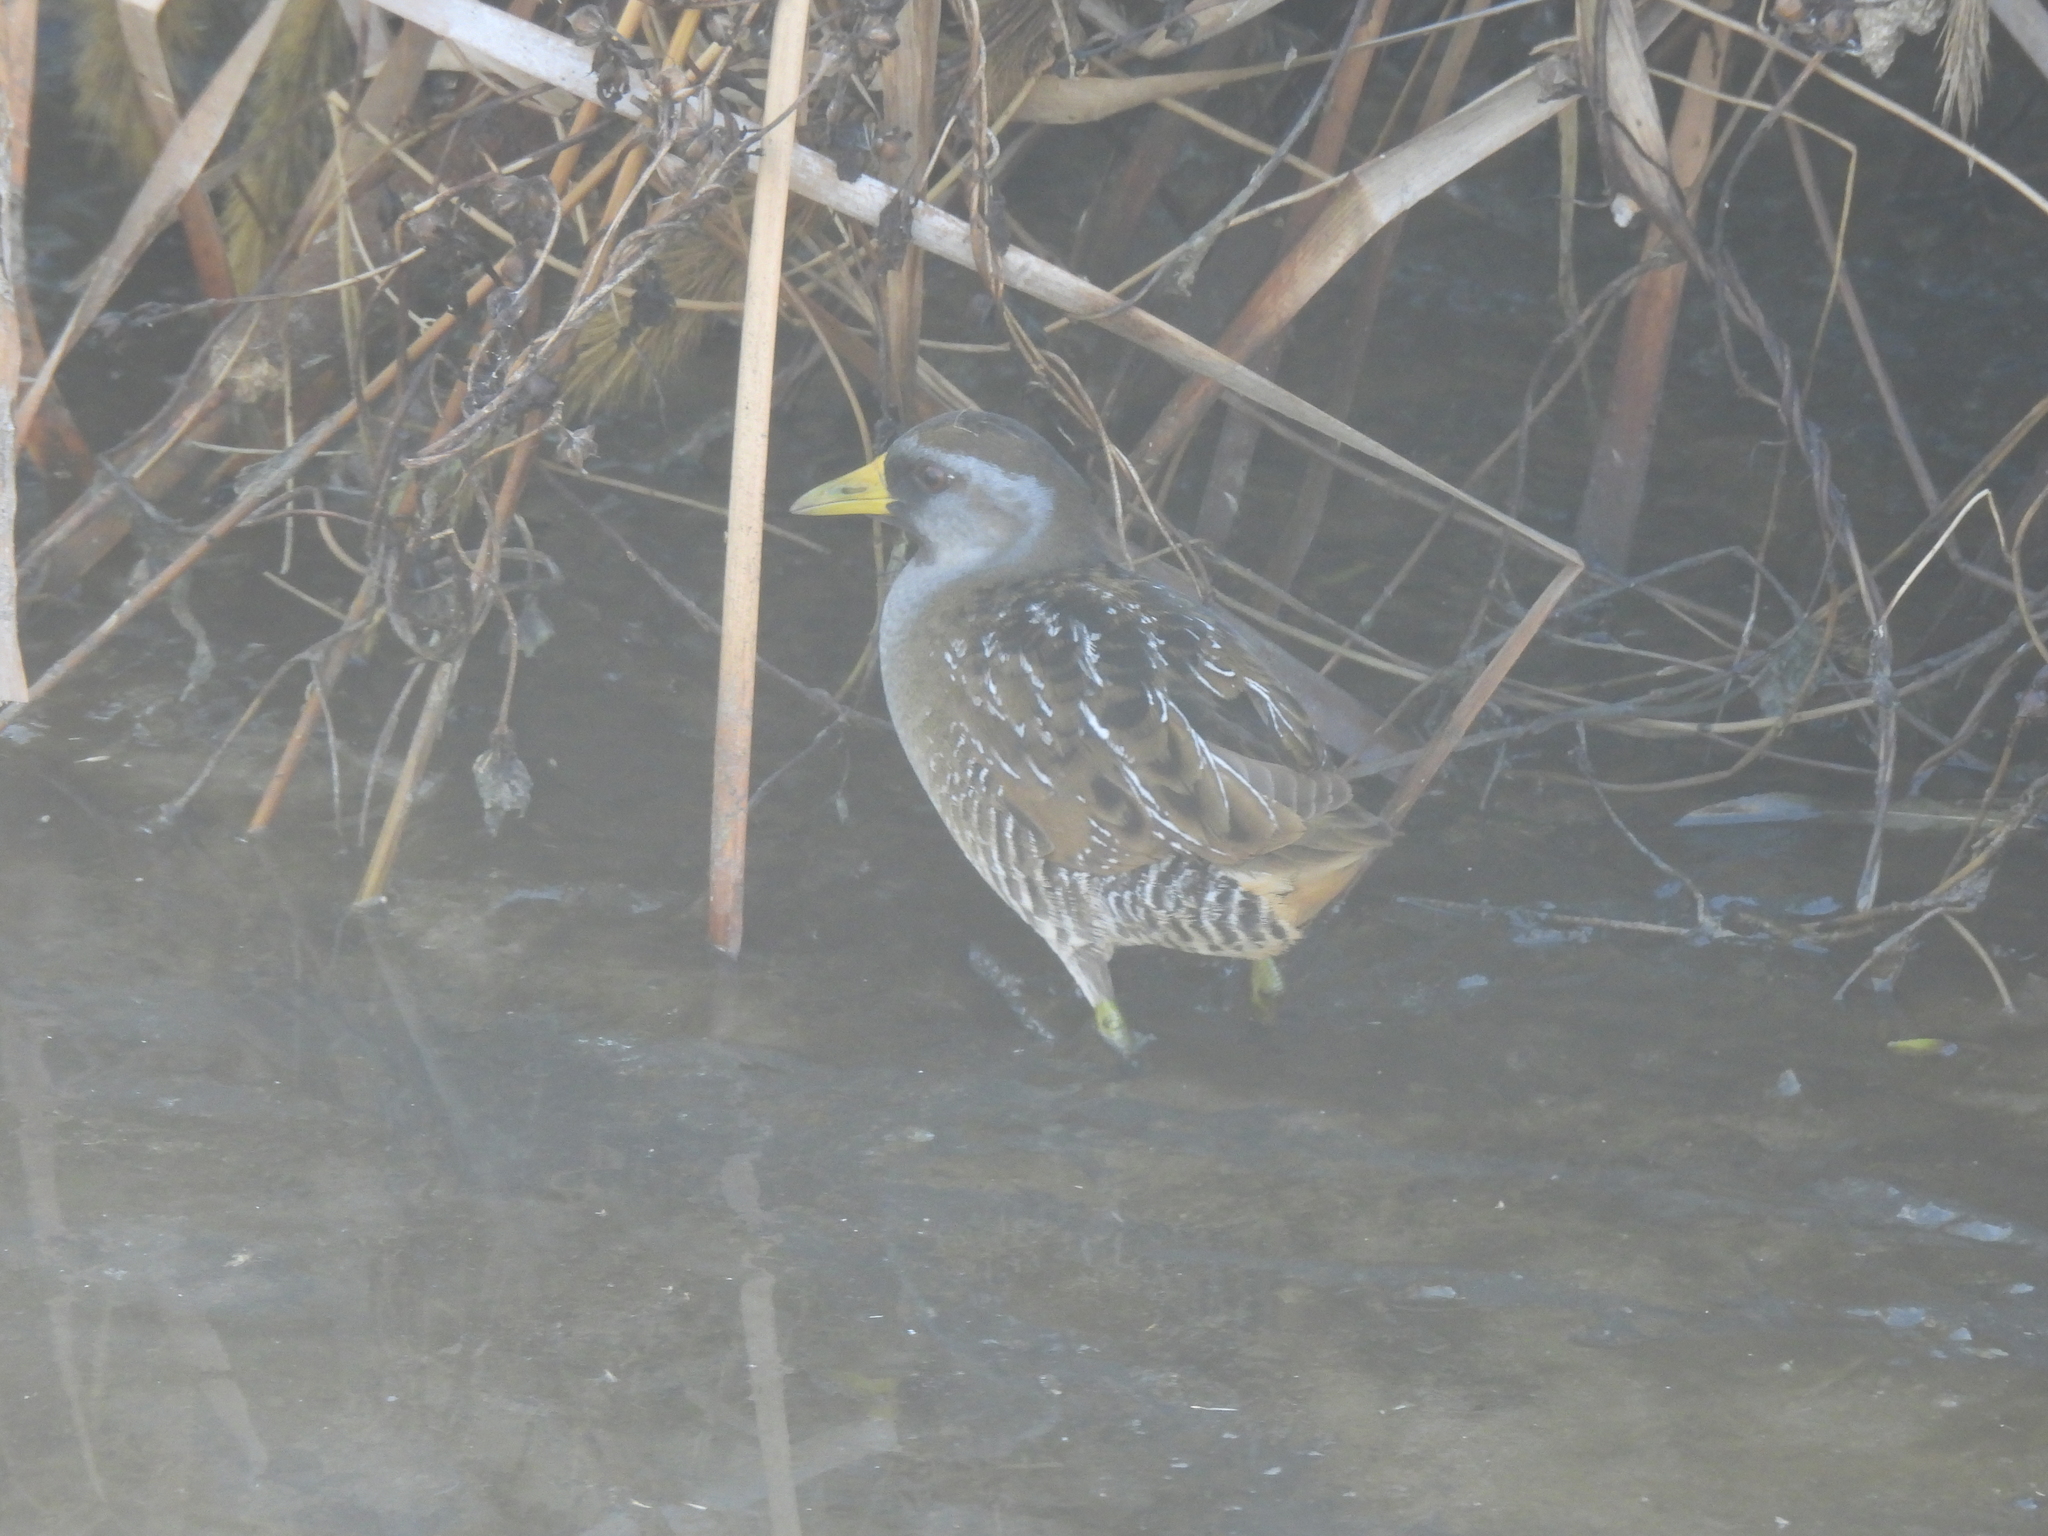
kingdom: Animalia
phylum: Chordata
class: Aves
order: Gruiformes
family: Rallidae
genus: Porzana
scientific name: Porzana carolina
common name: Sora
